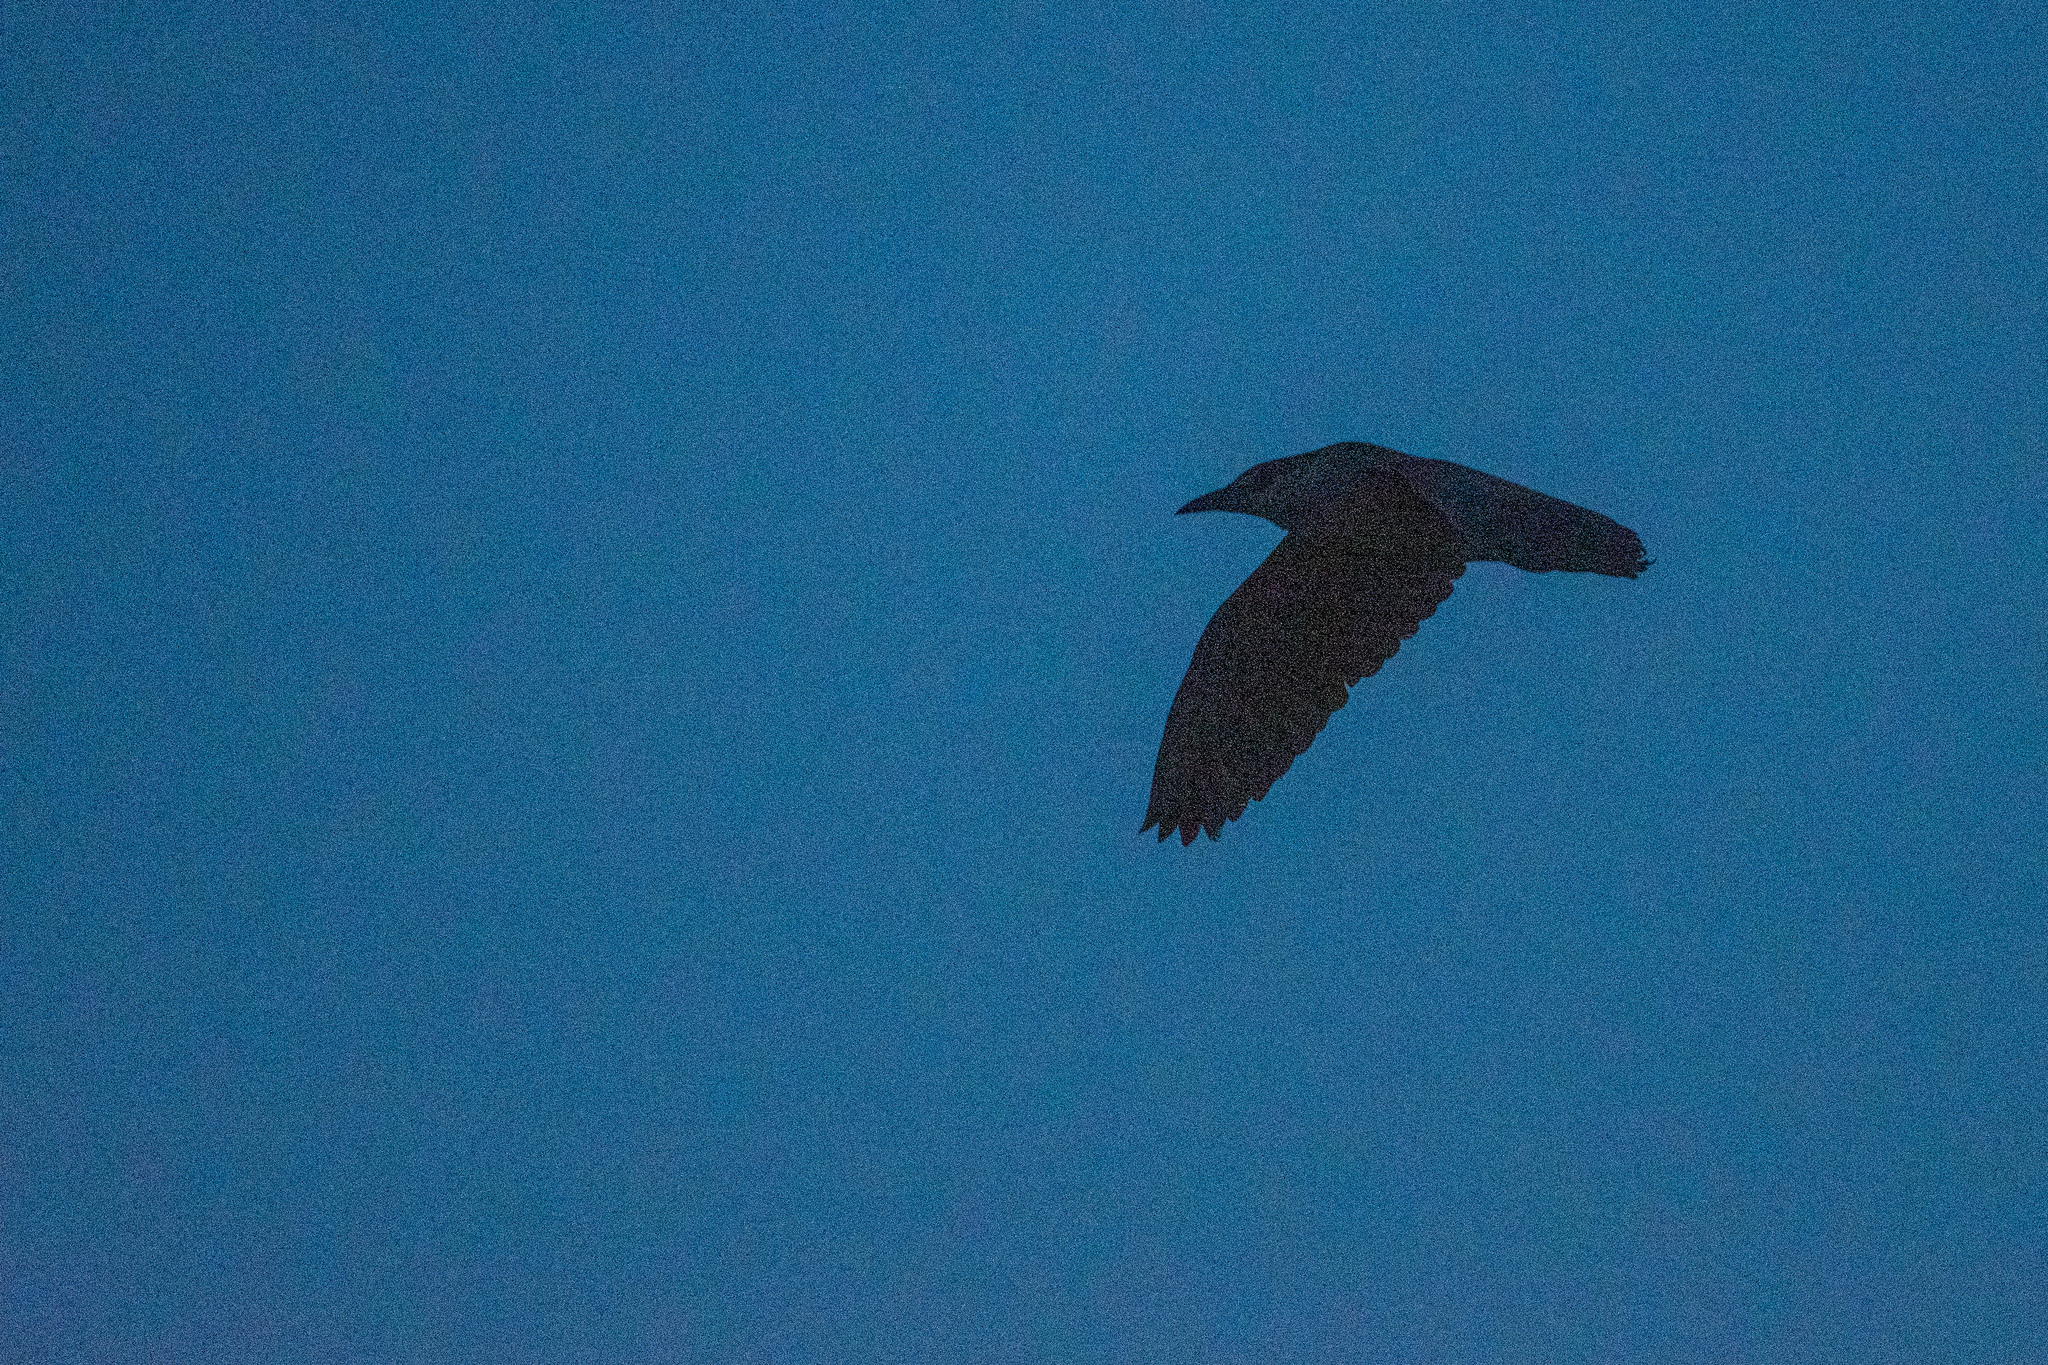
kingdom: Animalia
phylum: Chordata
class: Aves
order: Pelecaniformes
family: Ardeidae
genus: Nycticorax
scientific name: Nycticorax nycticorax
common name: Black-crowned night heron
